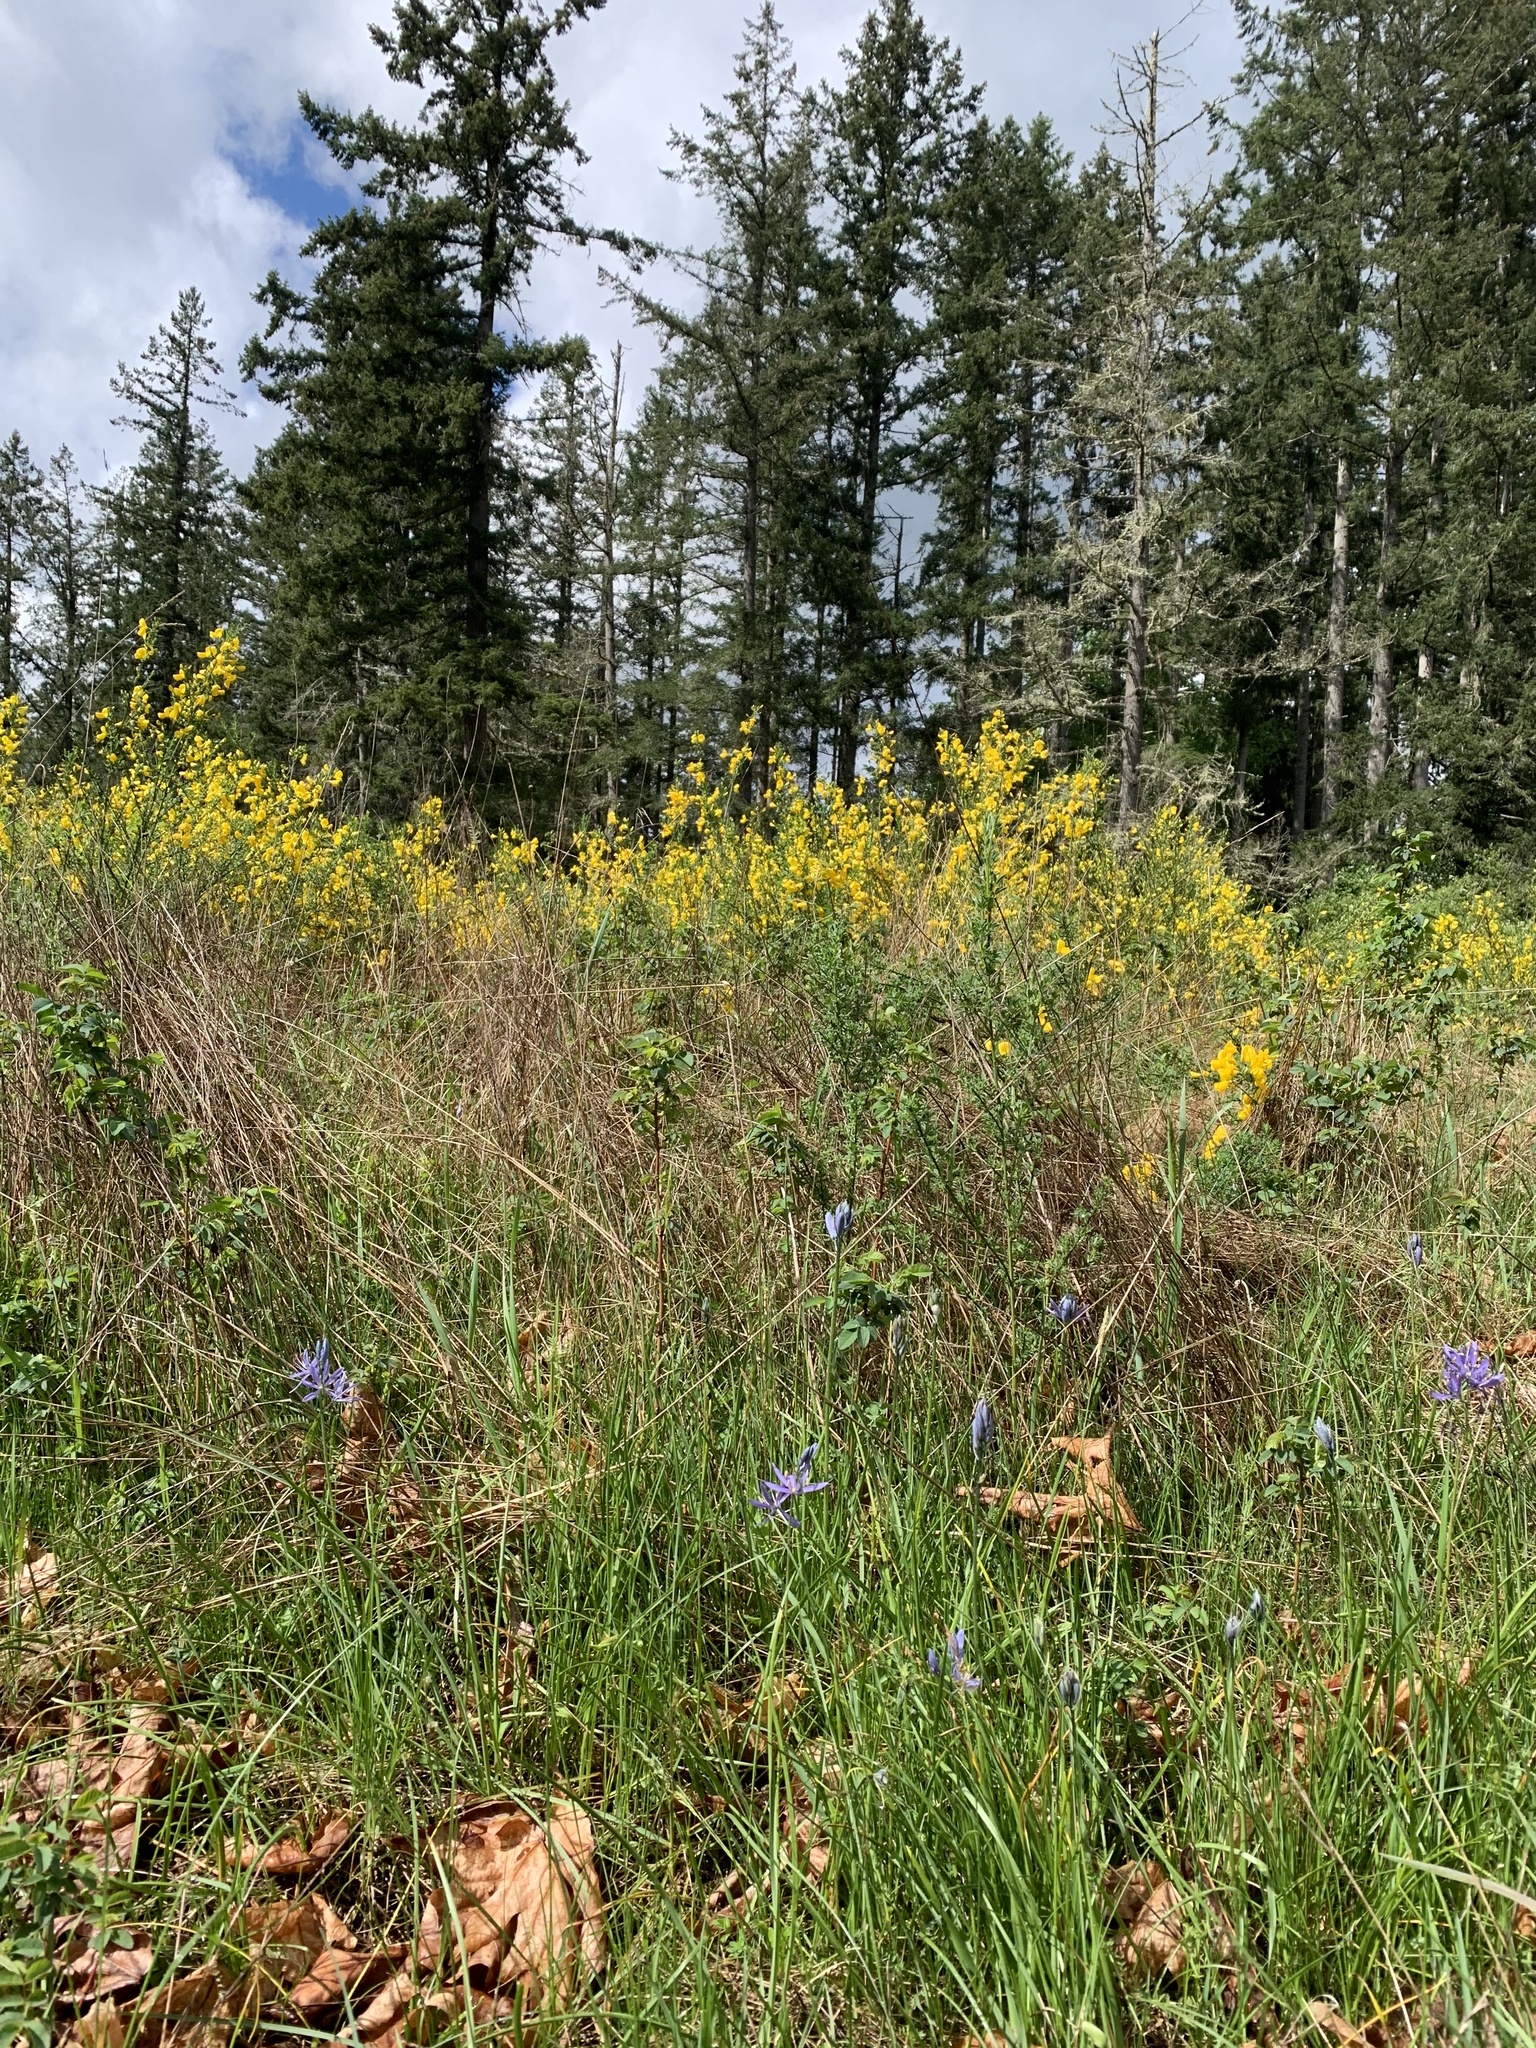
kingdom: Plantae
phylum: Tracheophyta
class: Liliopsida
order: Asparagales
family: Asparagaceae
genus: Camassia
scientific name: Camassia quamash
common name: Common camas
